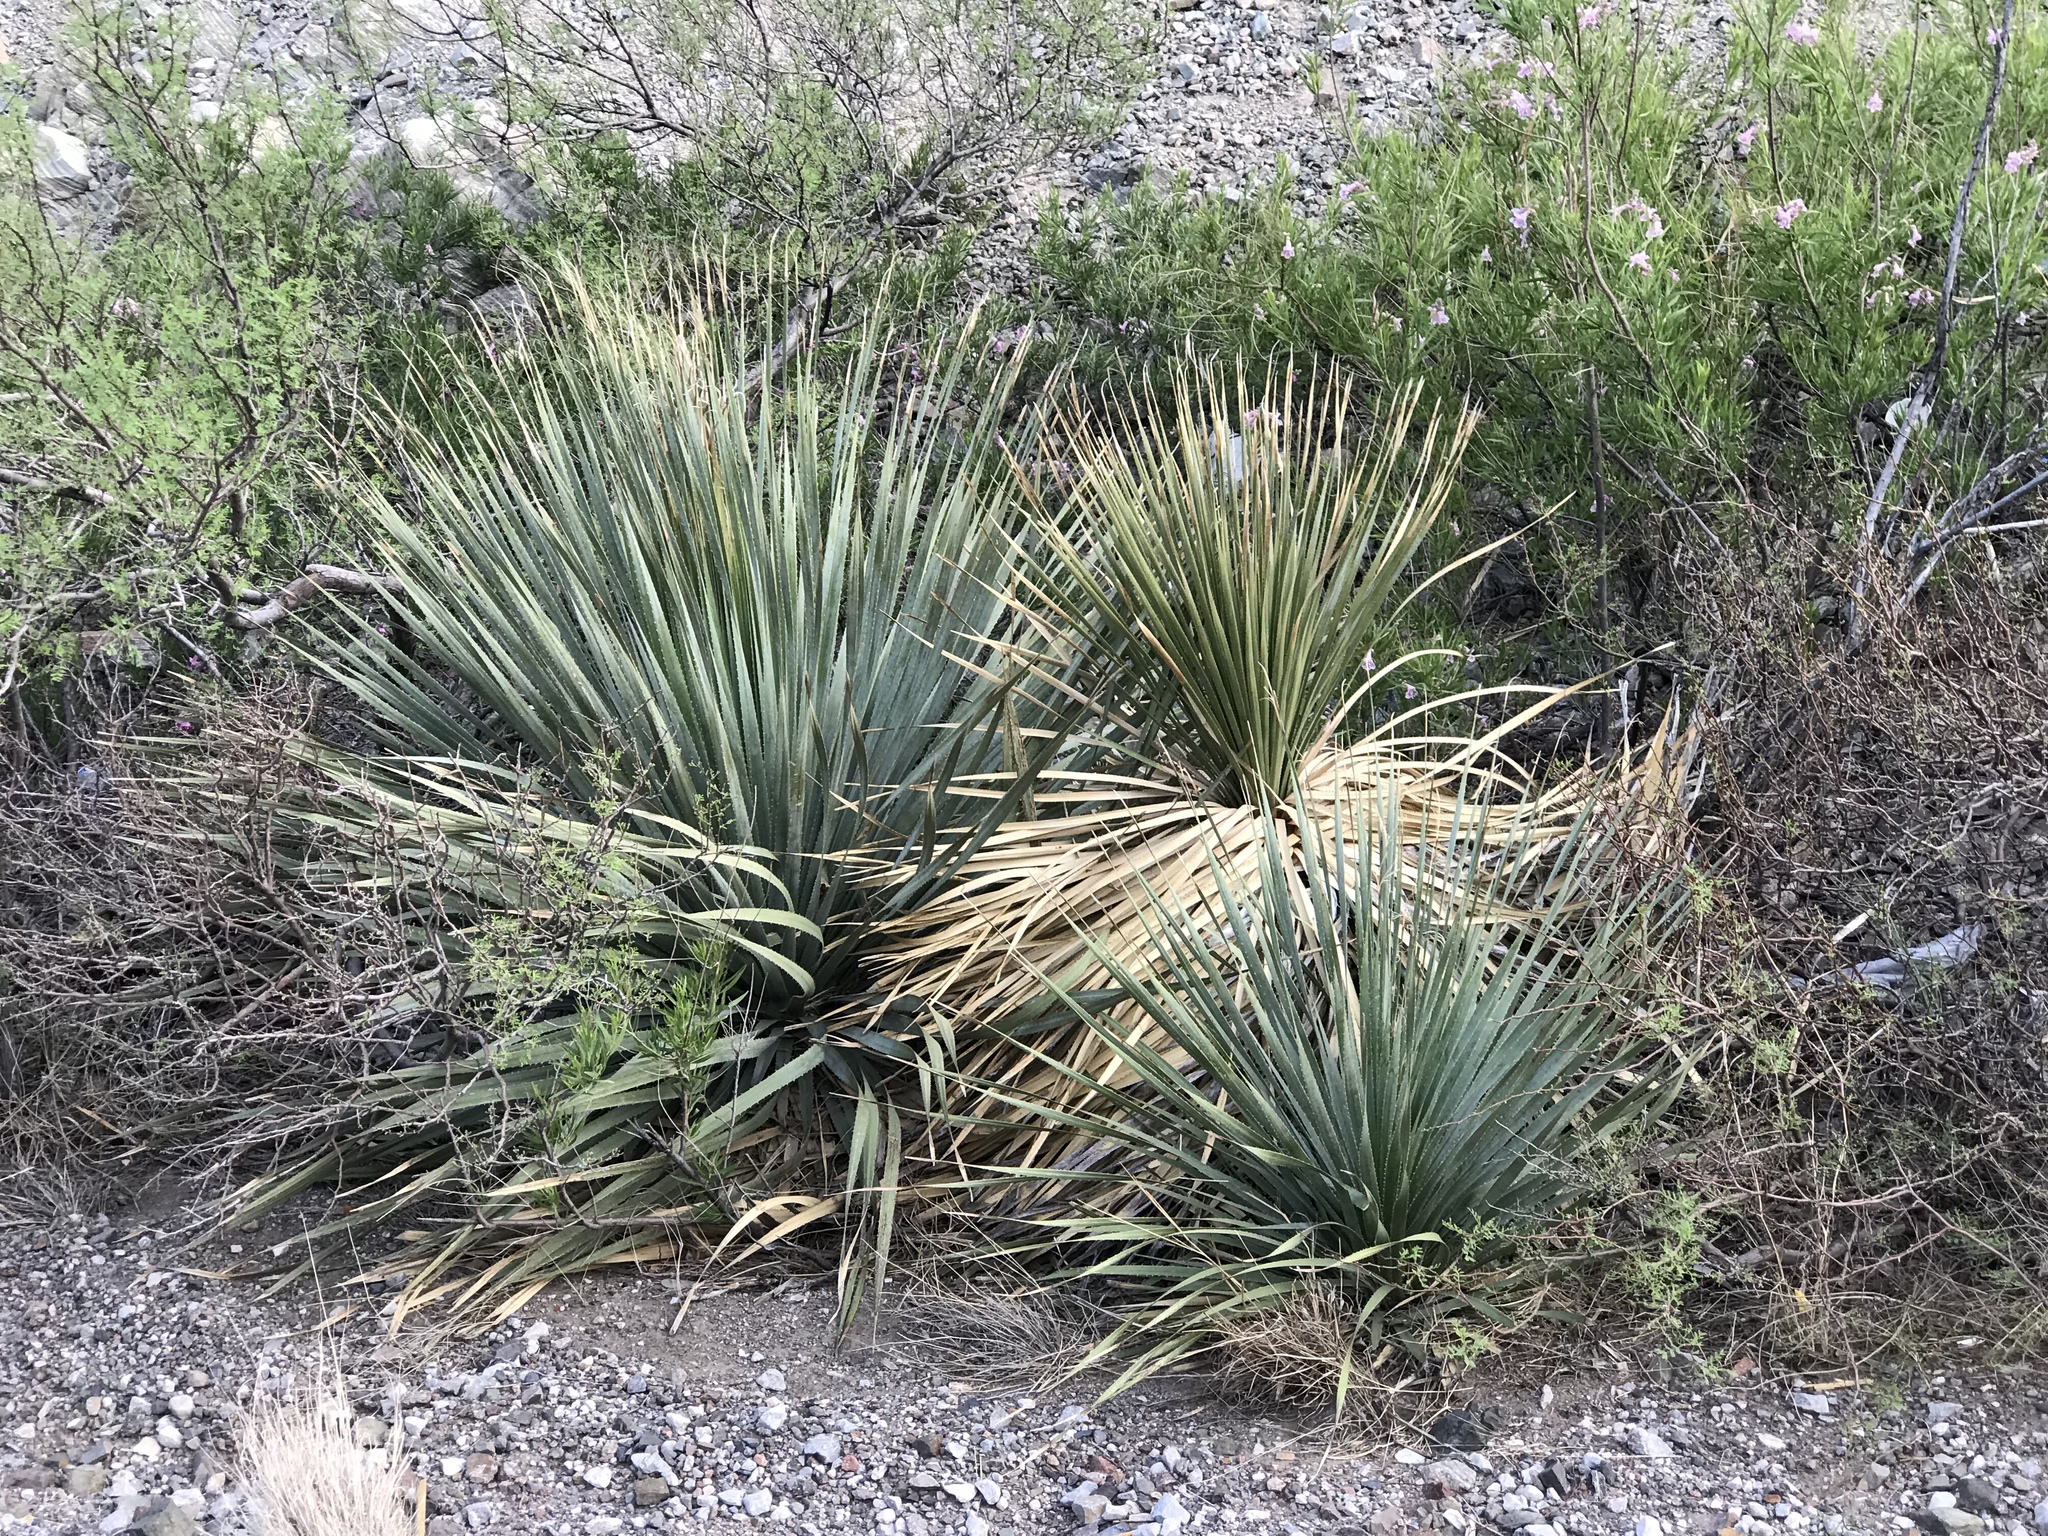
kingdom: Plantae
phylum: Tracheophyta
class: Liliopsida
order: Asparagales
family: Asparagaceae
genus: Dasylirion
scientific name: Dasylirion wheeleri
